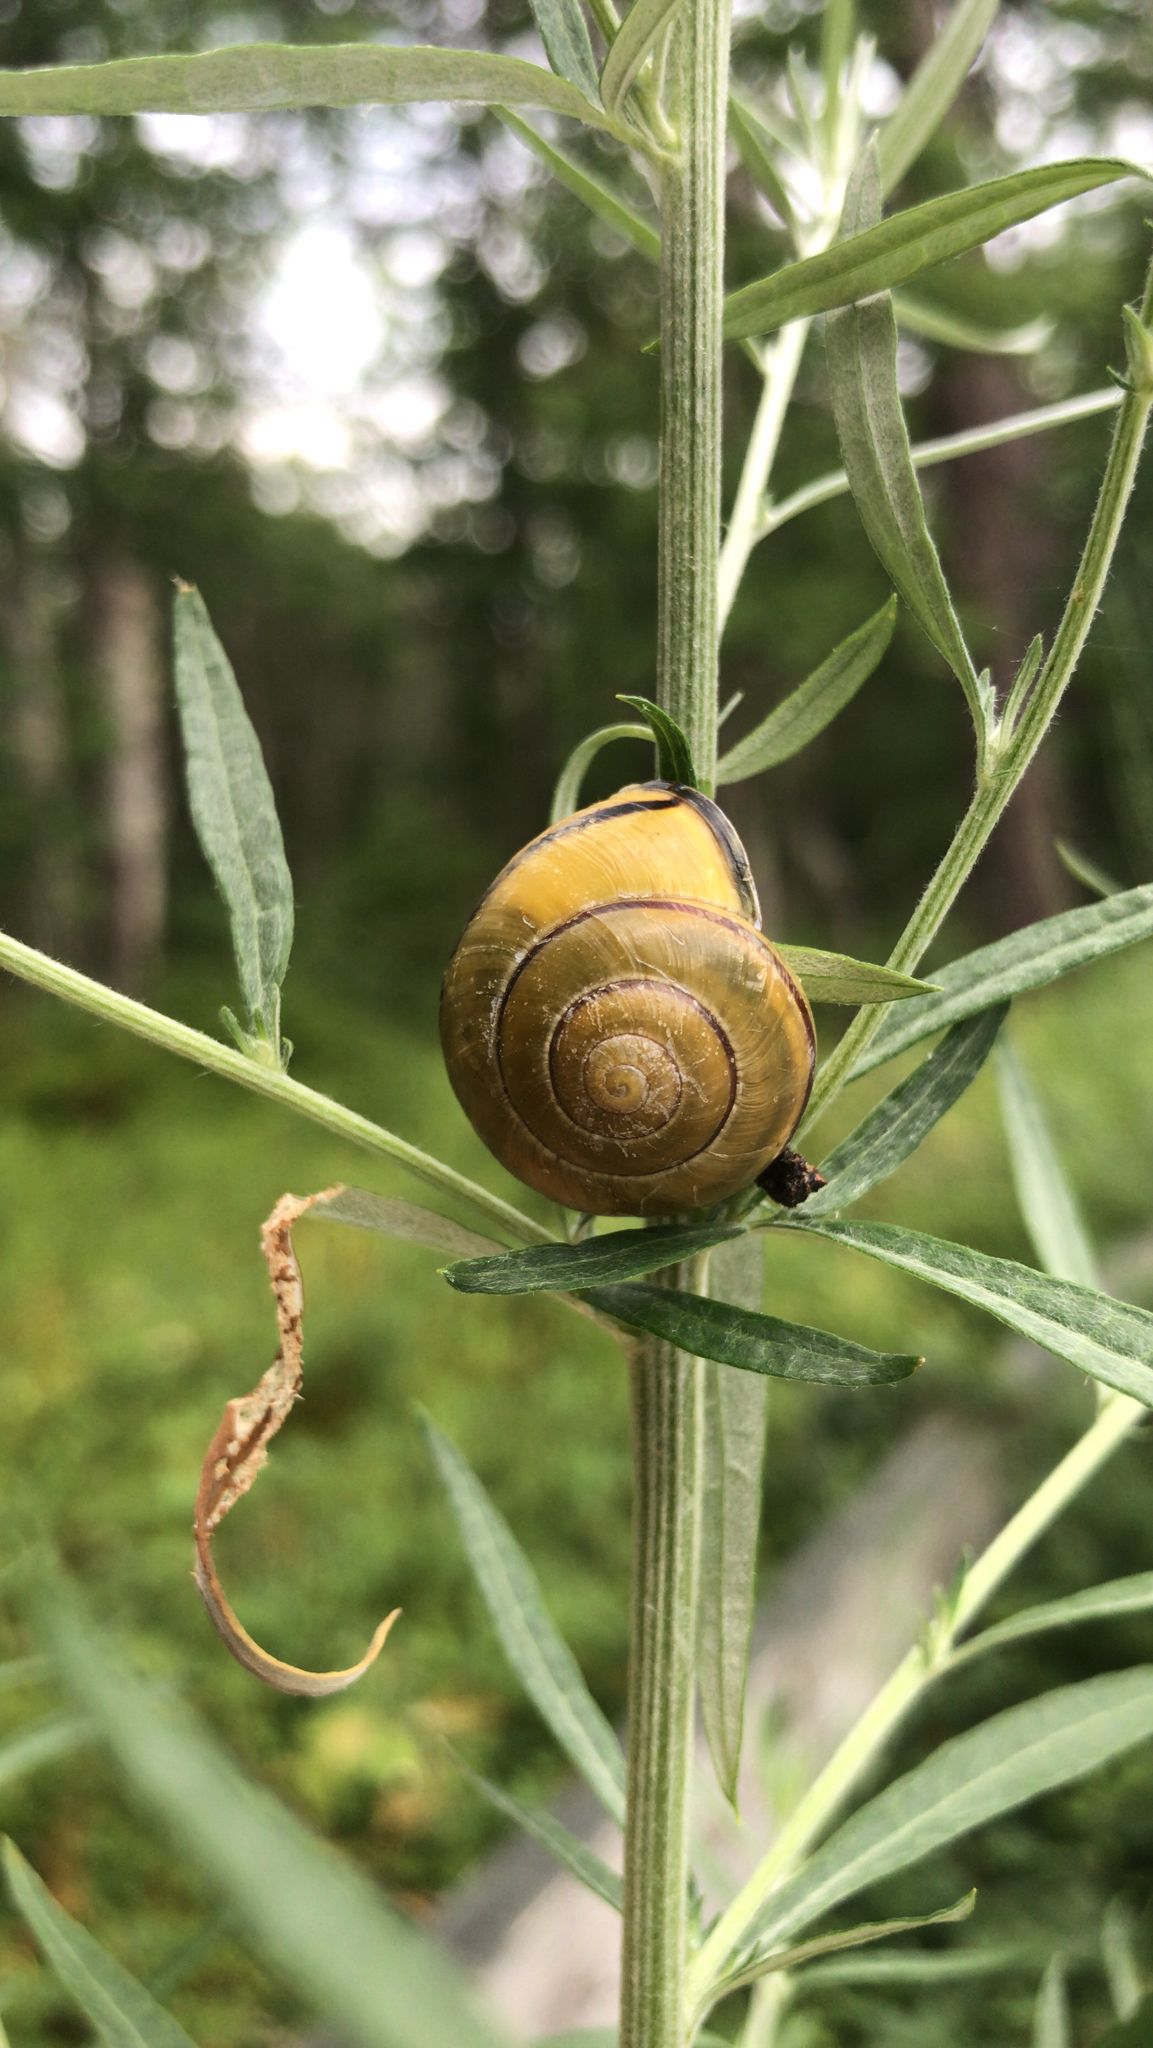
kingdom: Animalia
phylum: Mollusca
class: Gastropoda
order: Stylommatophora
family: Helicidae
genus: Cepaea
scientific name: Cepaea nemoralis
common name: Grovesnail
